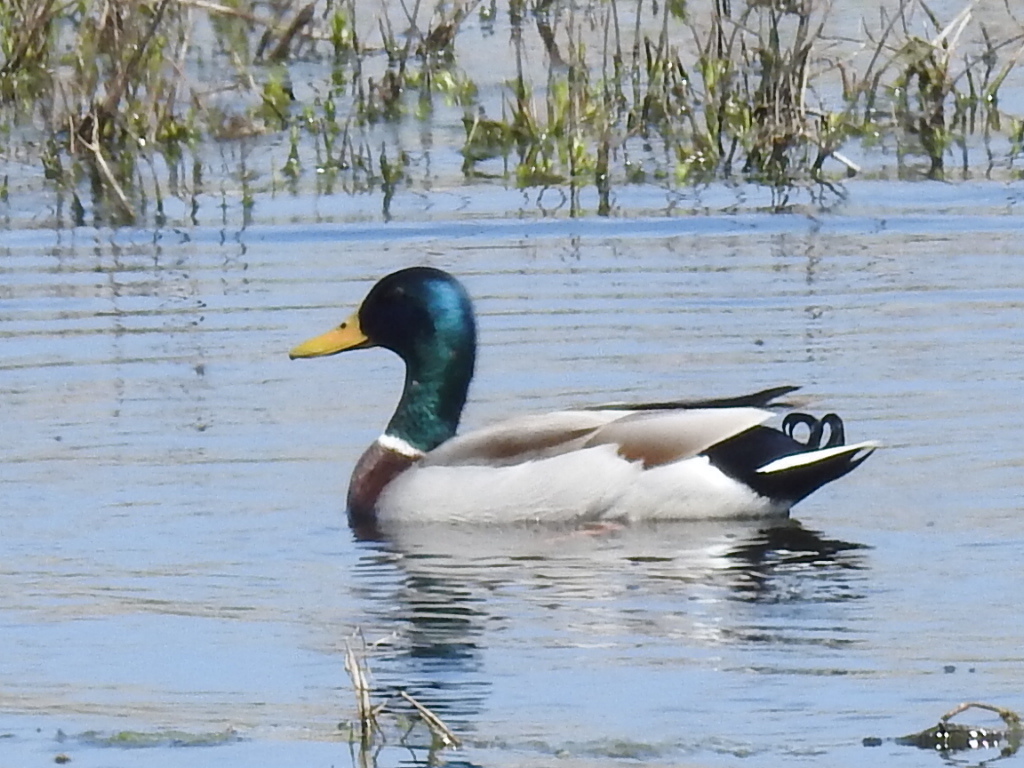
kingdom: Animalia
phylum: Chordata
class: Aves
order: Anseriformes
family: Anatidae
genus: Anas
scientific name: Anas platyrhynchos
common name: Mallard
